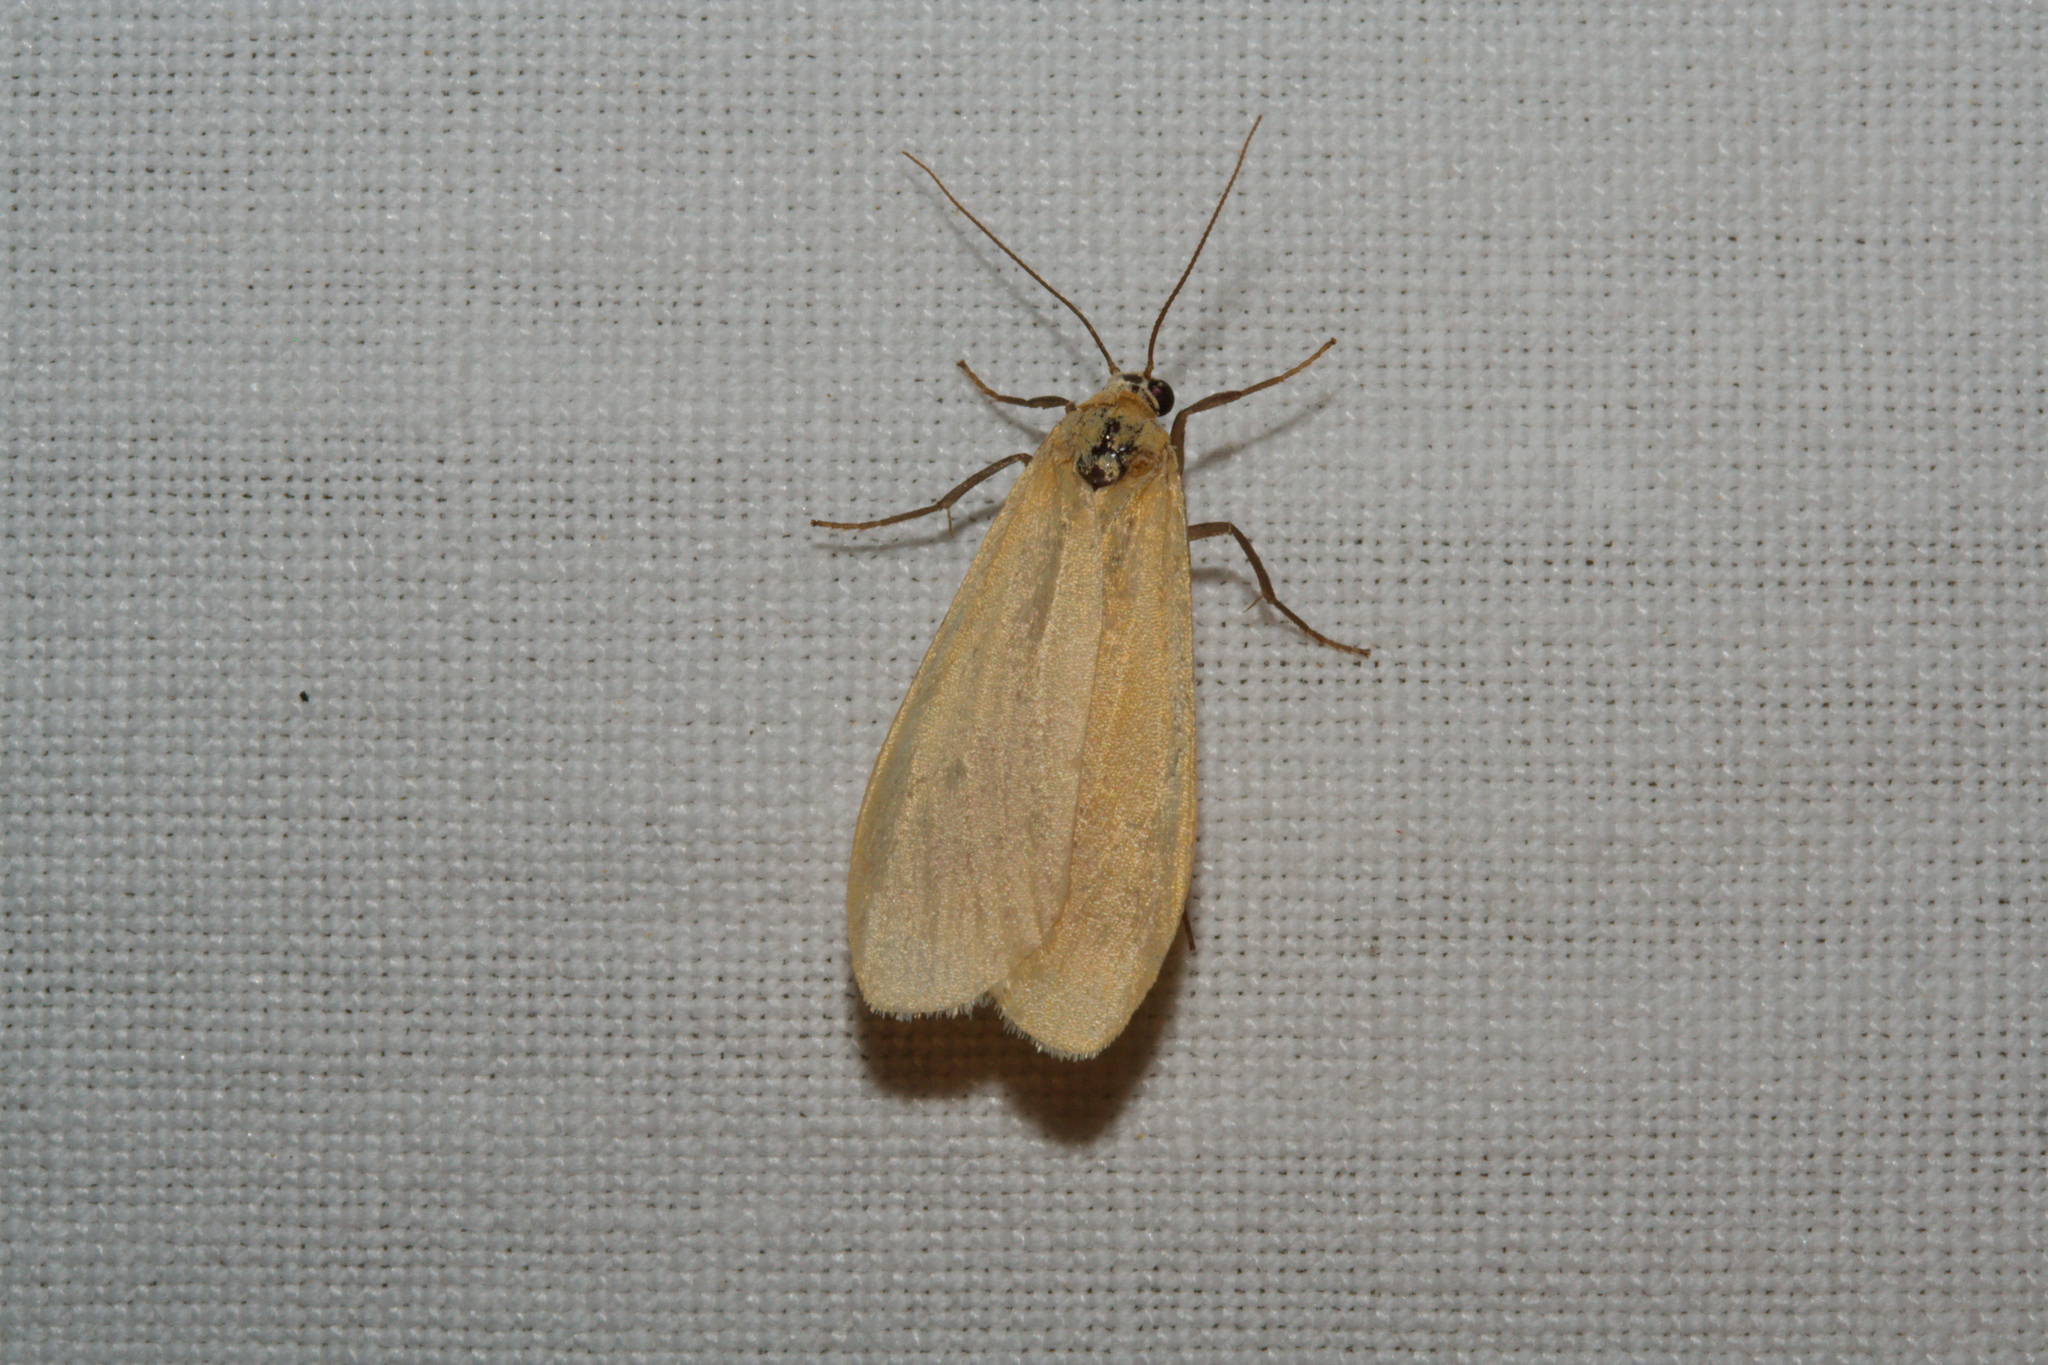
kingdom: Animalia
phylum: Arthropoda
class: Insecta
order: Lepidoptera
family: Erebidae
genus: Wittia
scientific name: Wittia sororcula
